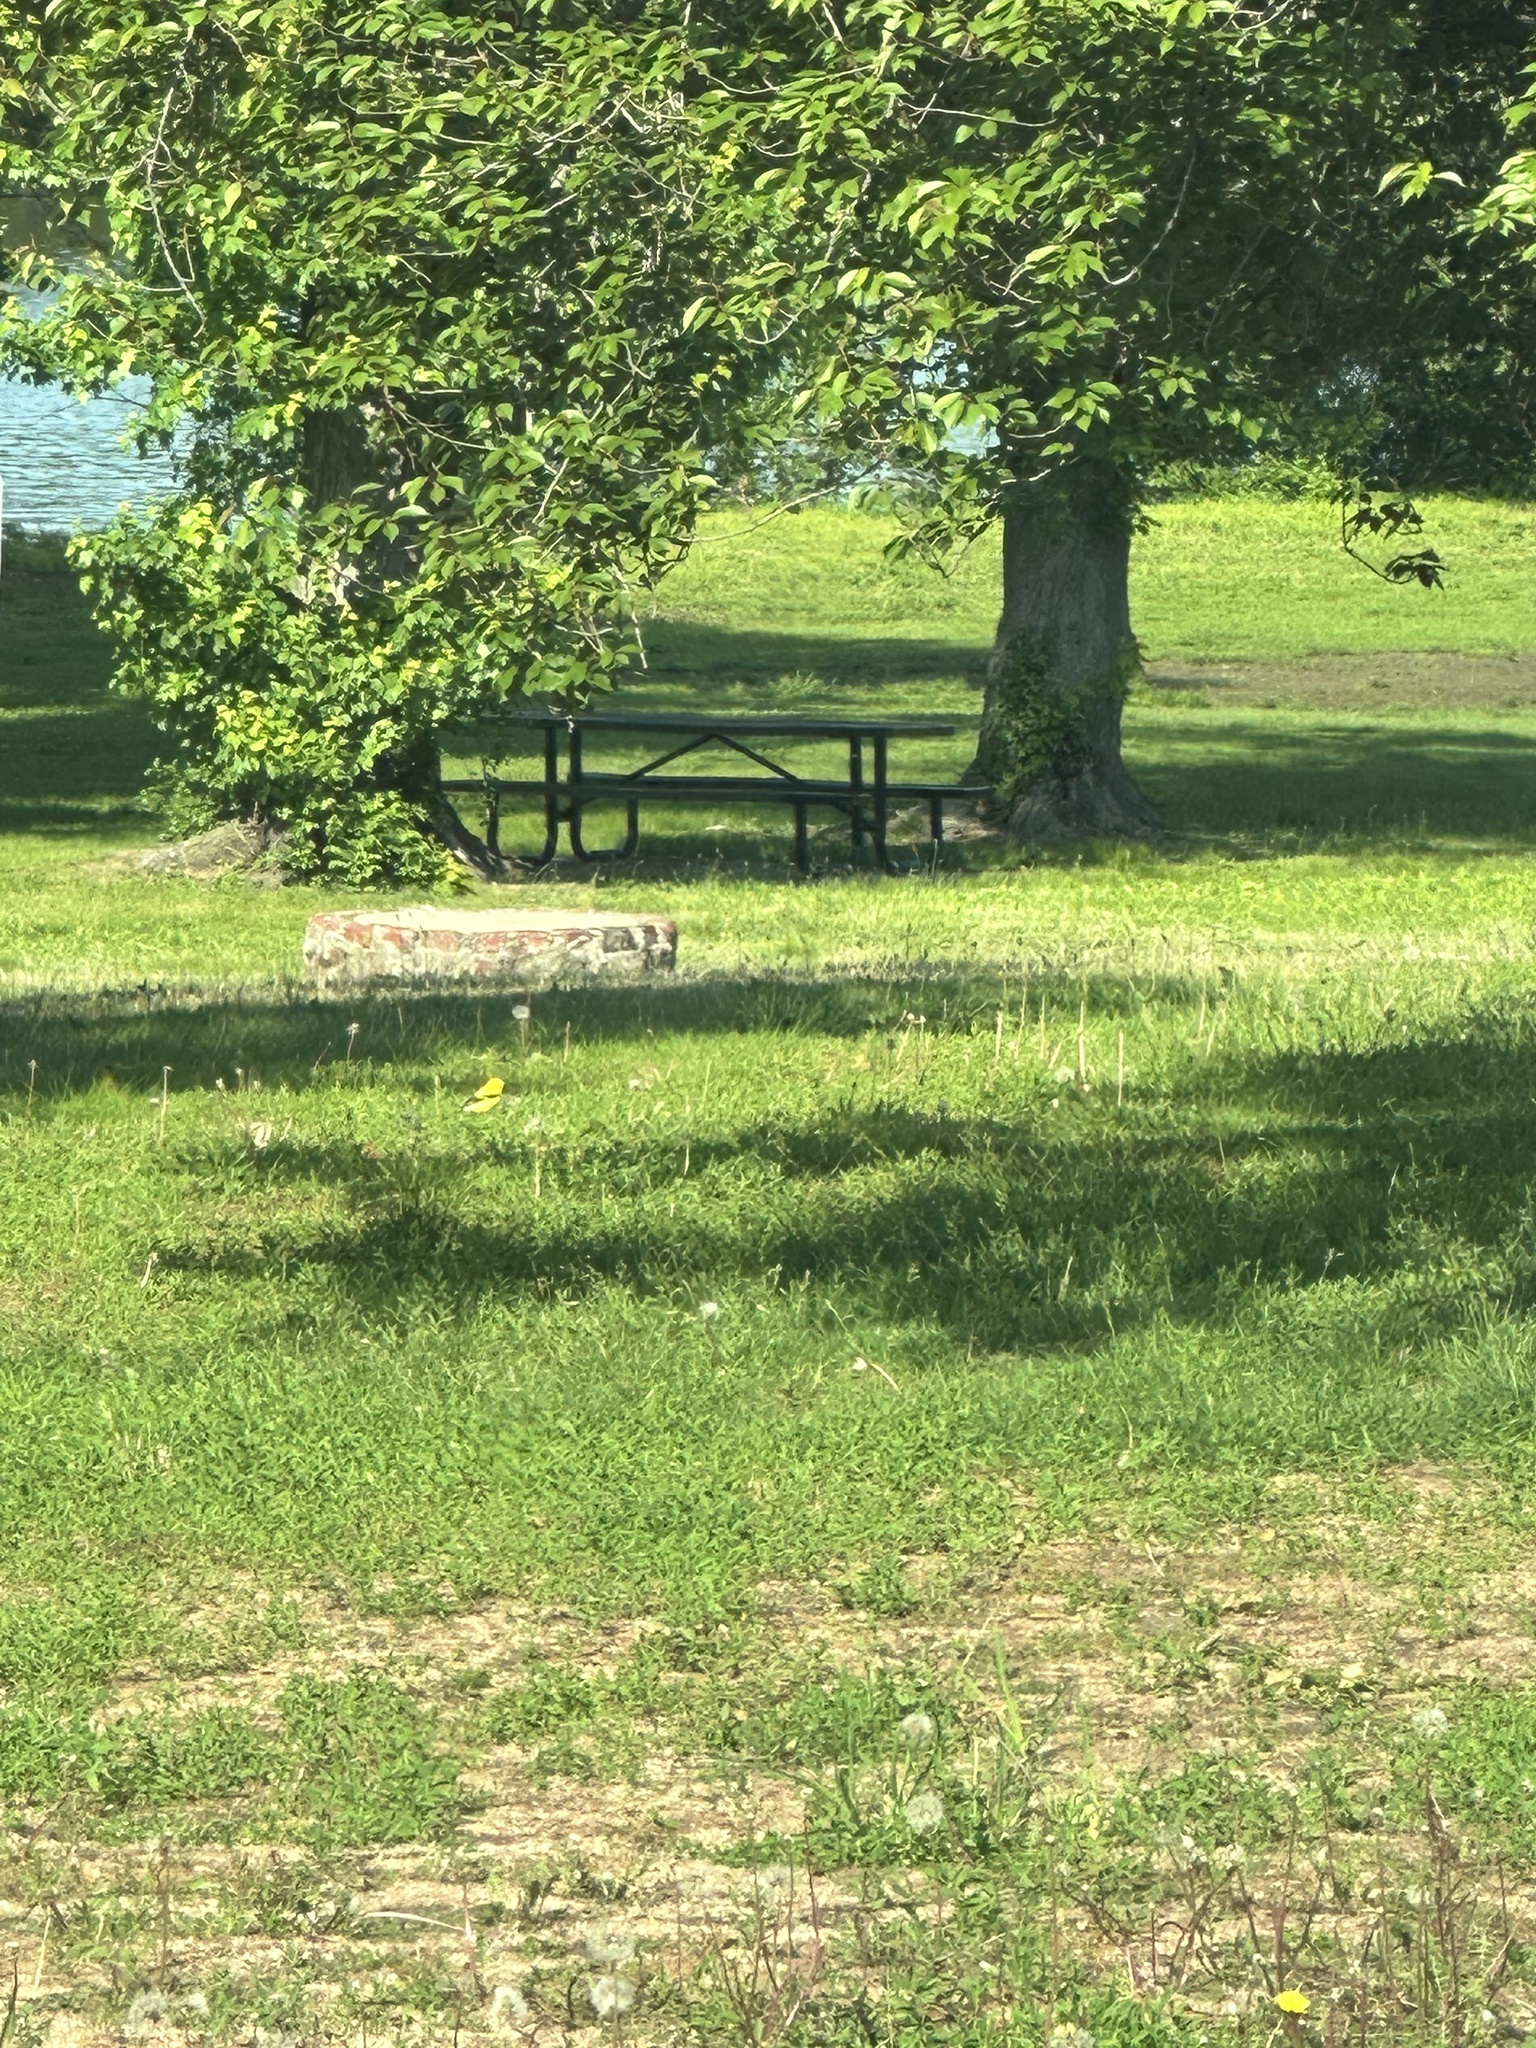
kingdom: Animalia
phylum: Chordata
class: Aves
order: Passeriformes
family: Fringillidae
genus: Spinus
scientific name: Spinus tristis
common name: American goldfinch
